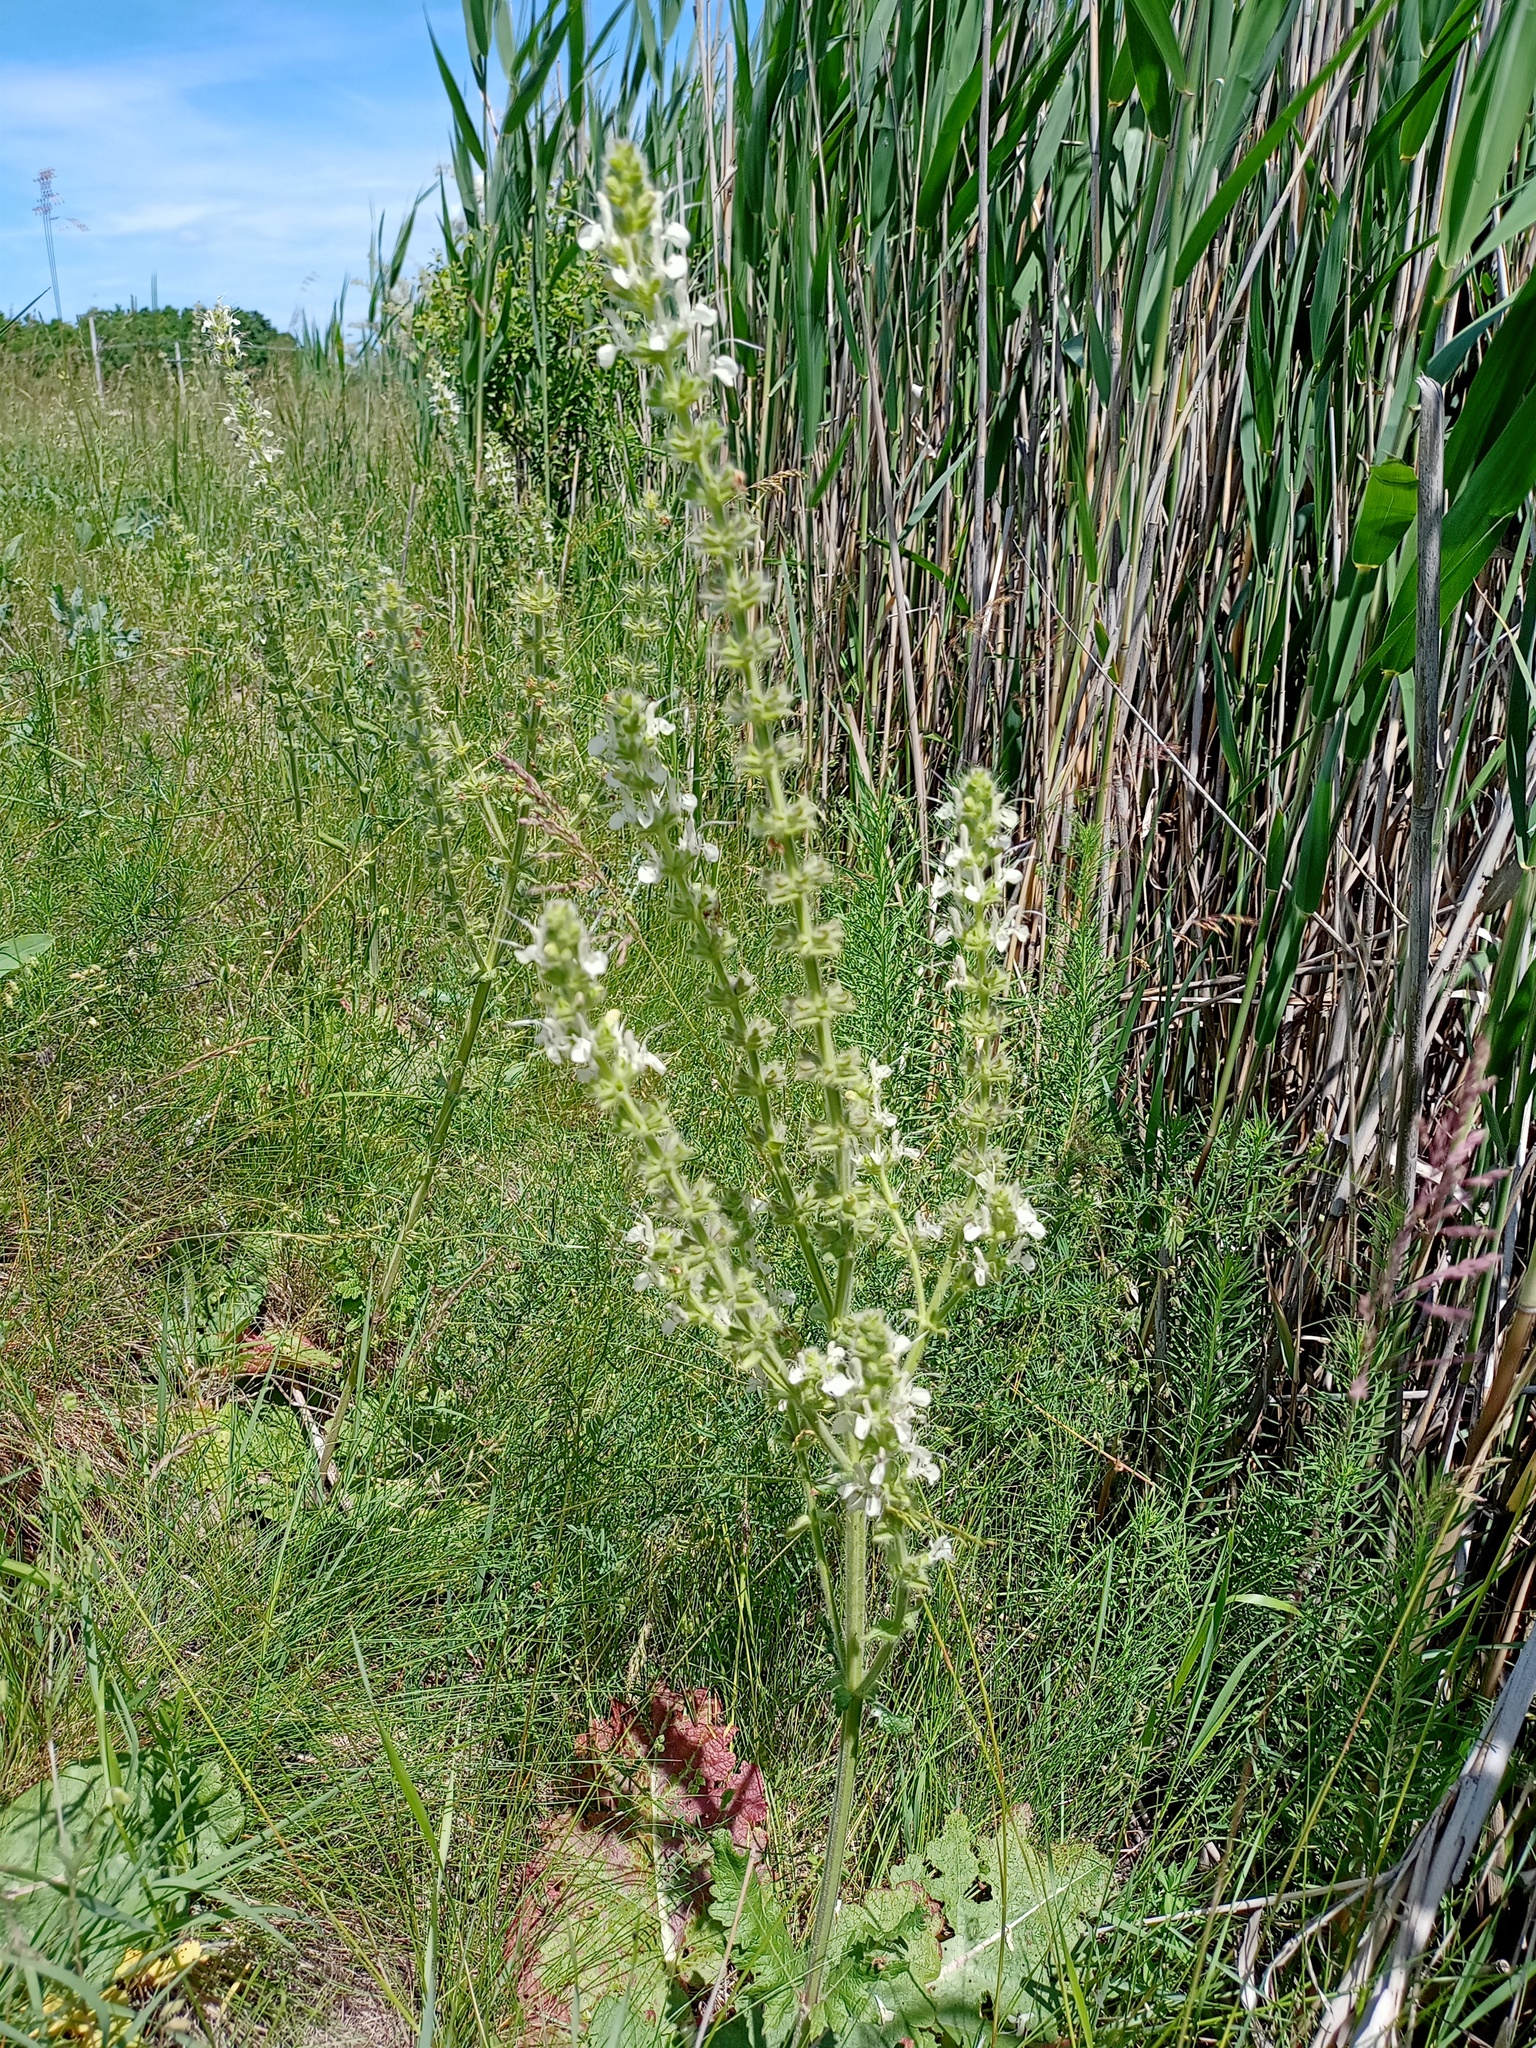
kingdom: Plantae
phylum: Tracheophyta
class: Magnoliopsida
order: Lamiales
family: Lamiaceae
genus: Salvia
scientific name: Salvia austriaca
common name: Austrian sage
